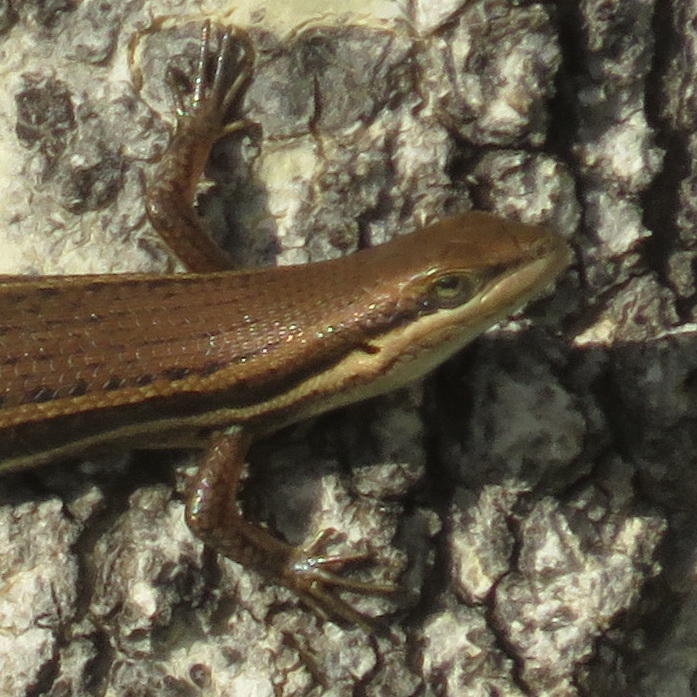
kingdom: Animalia
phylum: Chordata
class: Squamata
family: Scincidae
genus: Trachylepis
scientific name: Trachylepis varia
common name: Eastern variable skink
